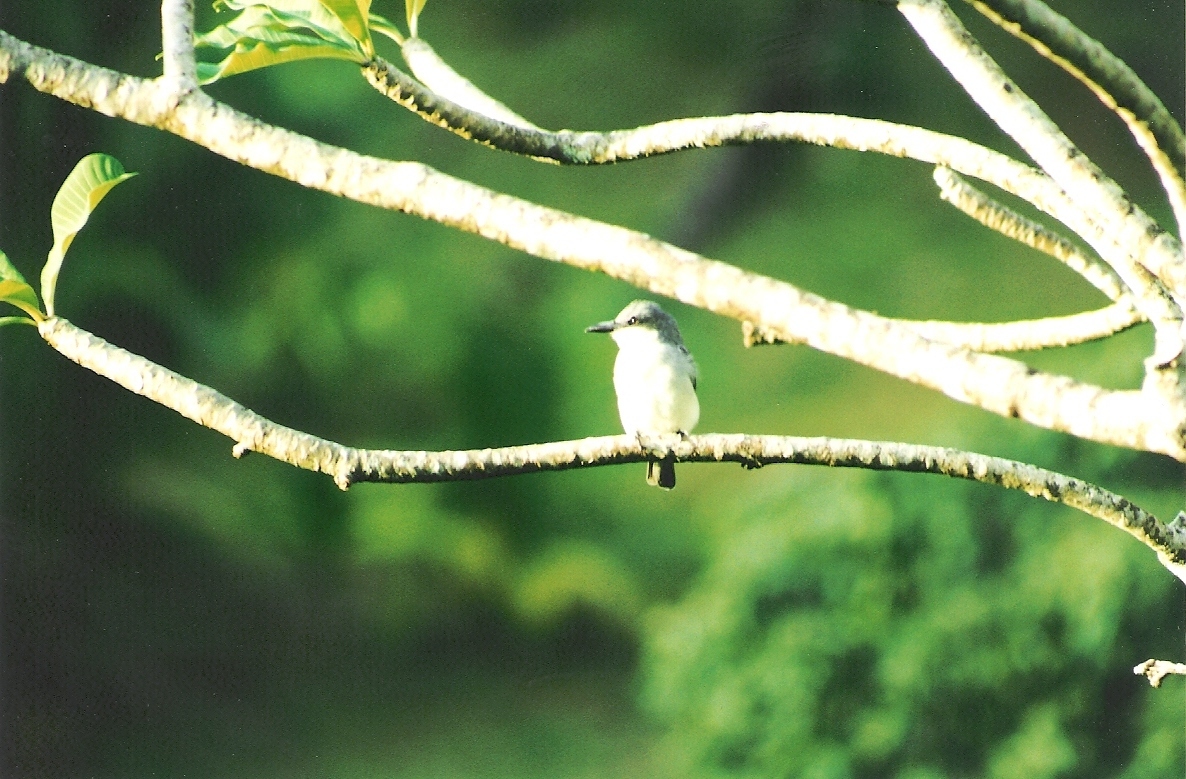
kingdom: Animalia
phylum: Chordata
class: Aves
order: Passeriformes
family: Tyrannidae
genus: Tyrannus
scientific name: Tyrannus dominicensis
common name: Gray kingbird
